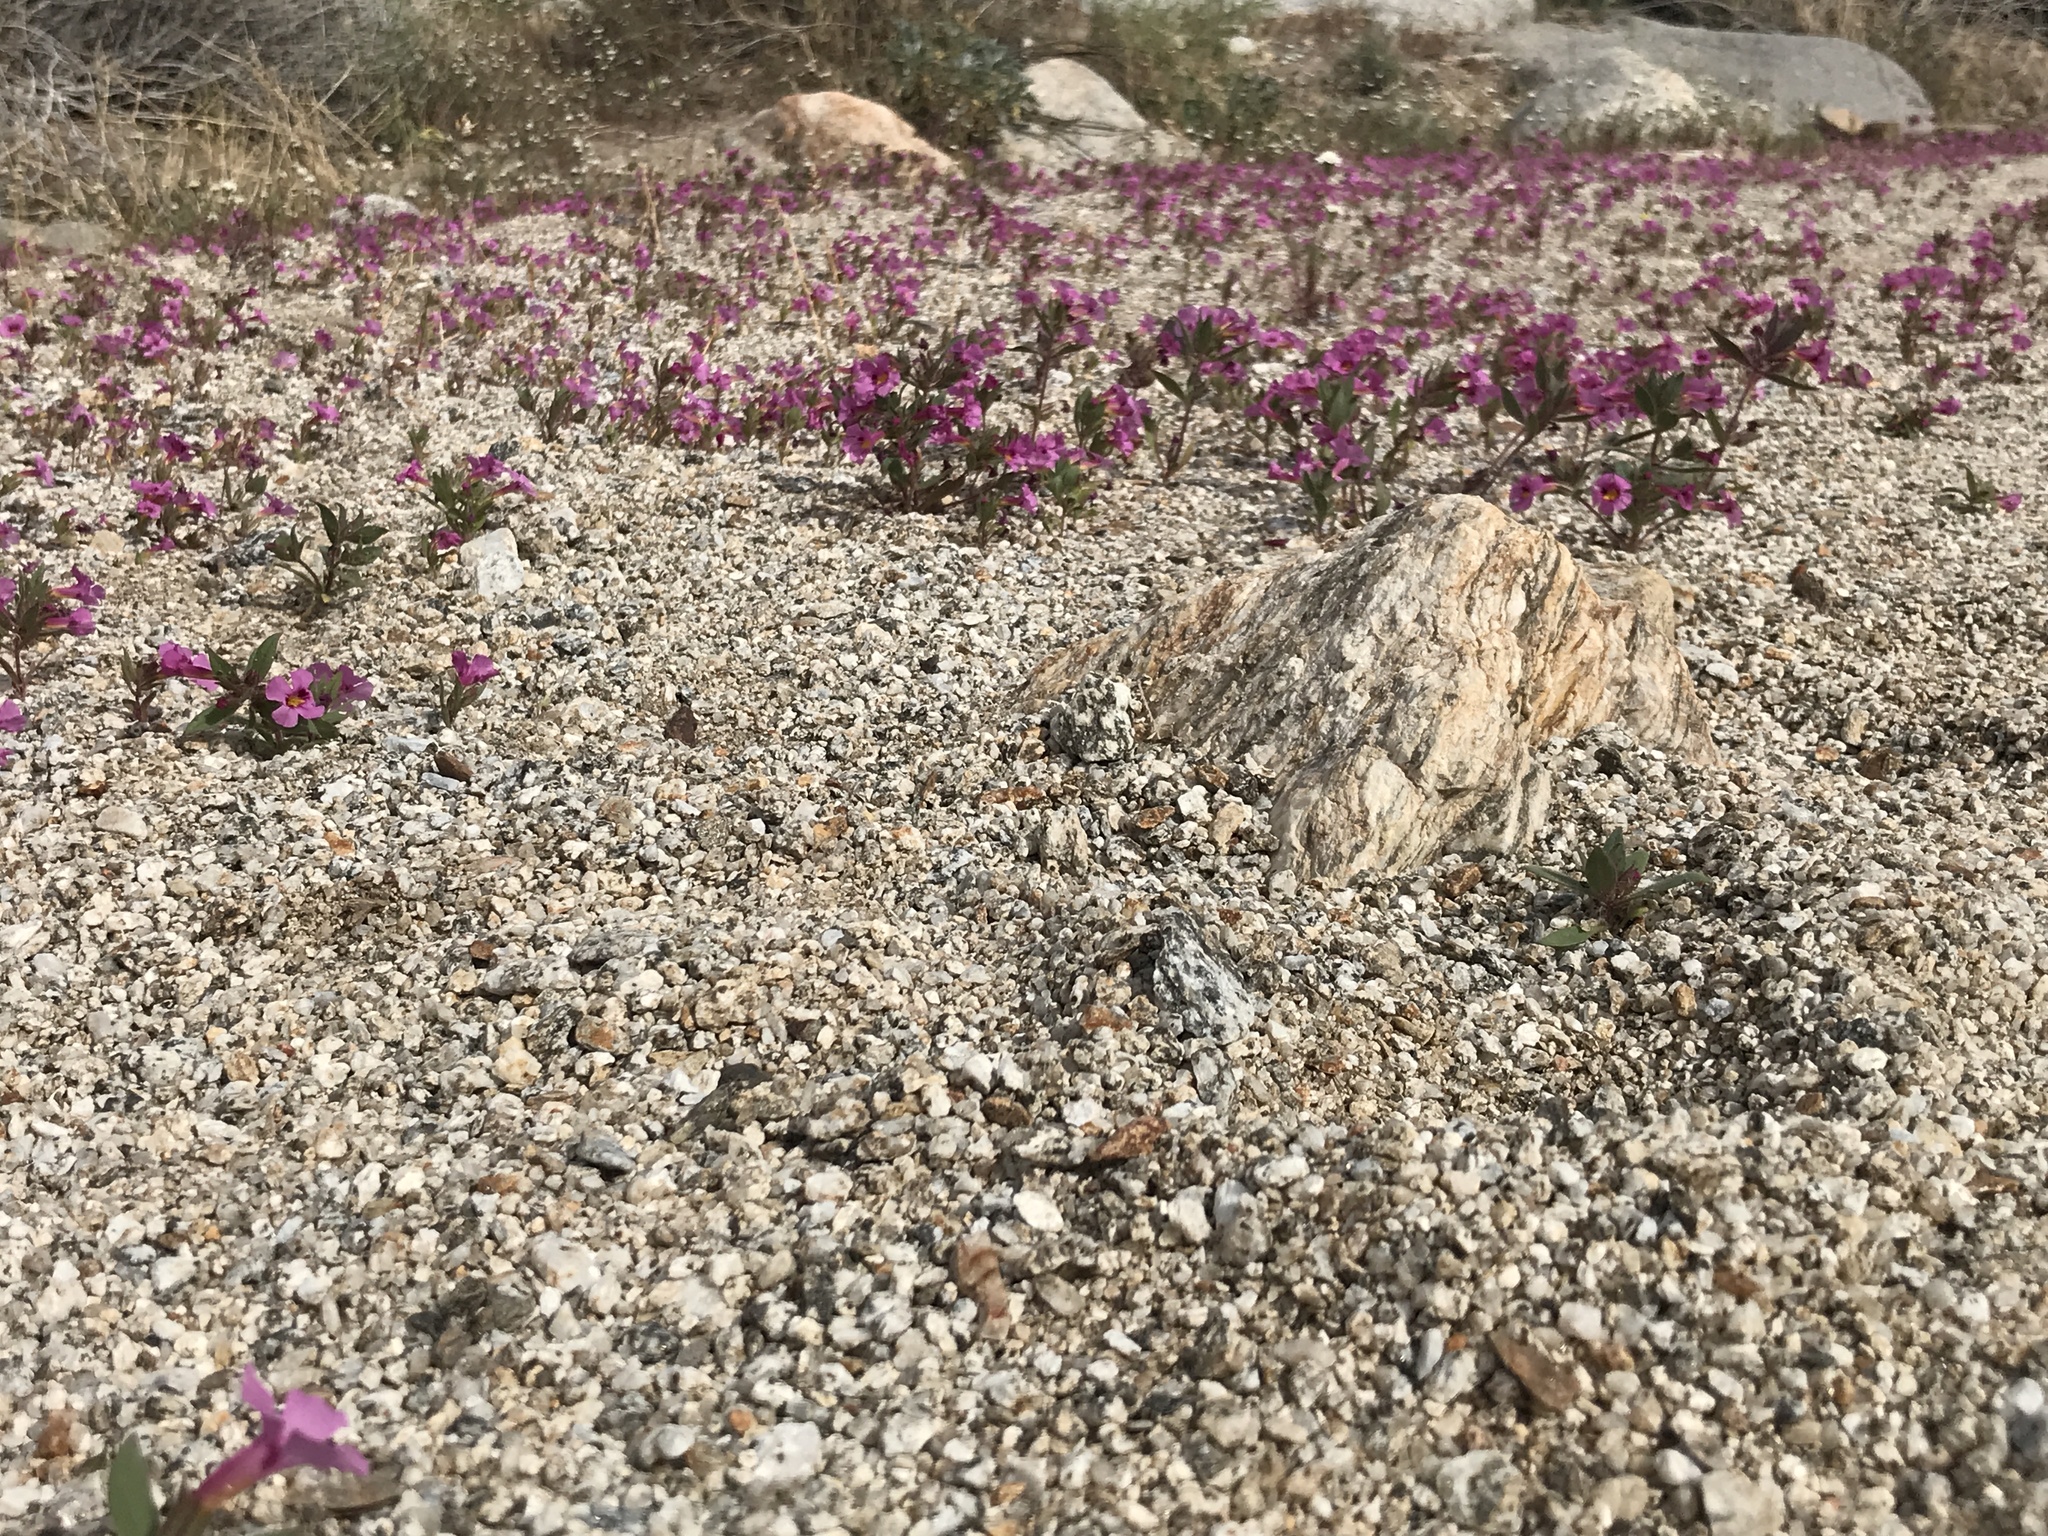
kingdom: Plantae
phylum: Tracheophyta
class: Magnoliopsida
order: Lamiales
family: Phrymaceae
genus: Diplacus
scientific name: Diplacus bigelovii
